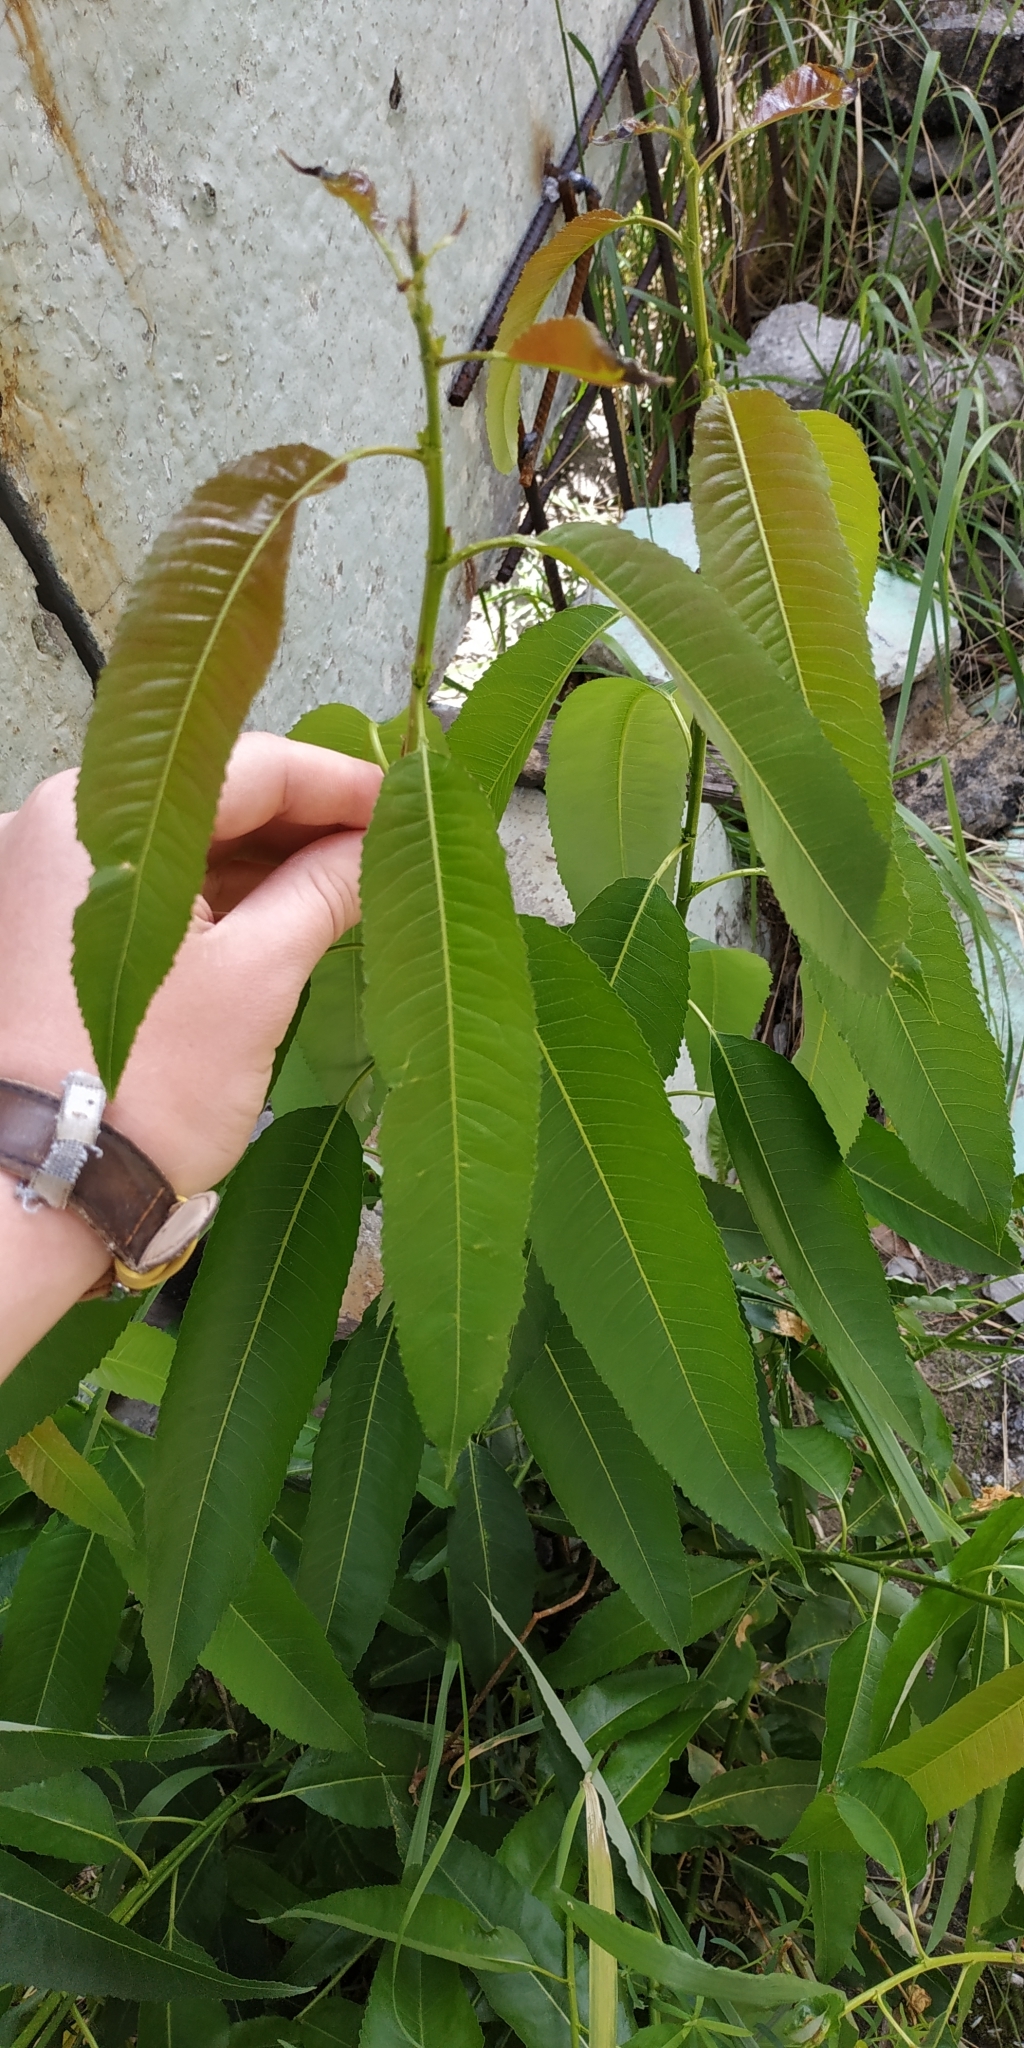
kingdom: Plantae
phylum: Tracheophyta
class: Magnoliopsida
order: Malpighiales
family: Salicaceae
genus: Salix
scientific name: Salix triandra
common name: Almond willow
